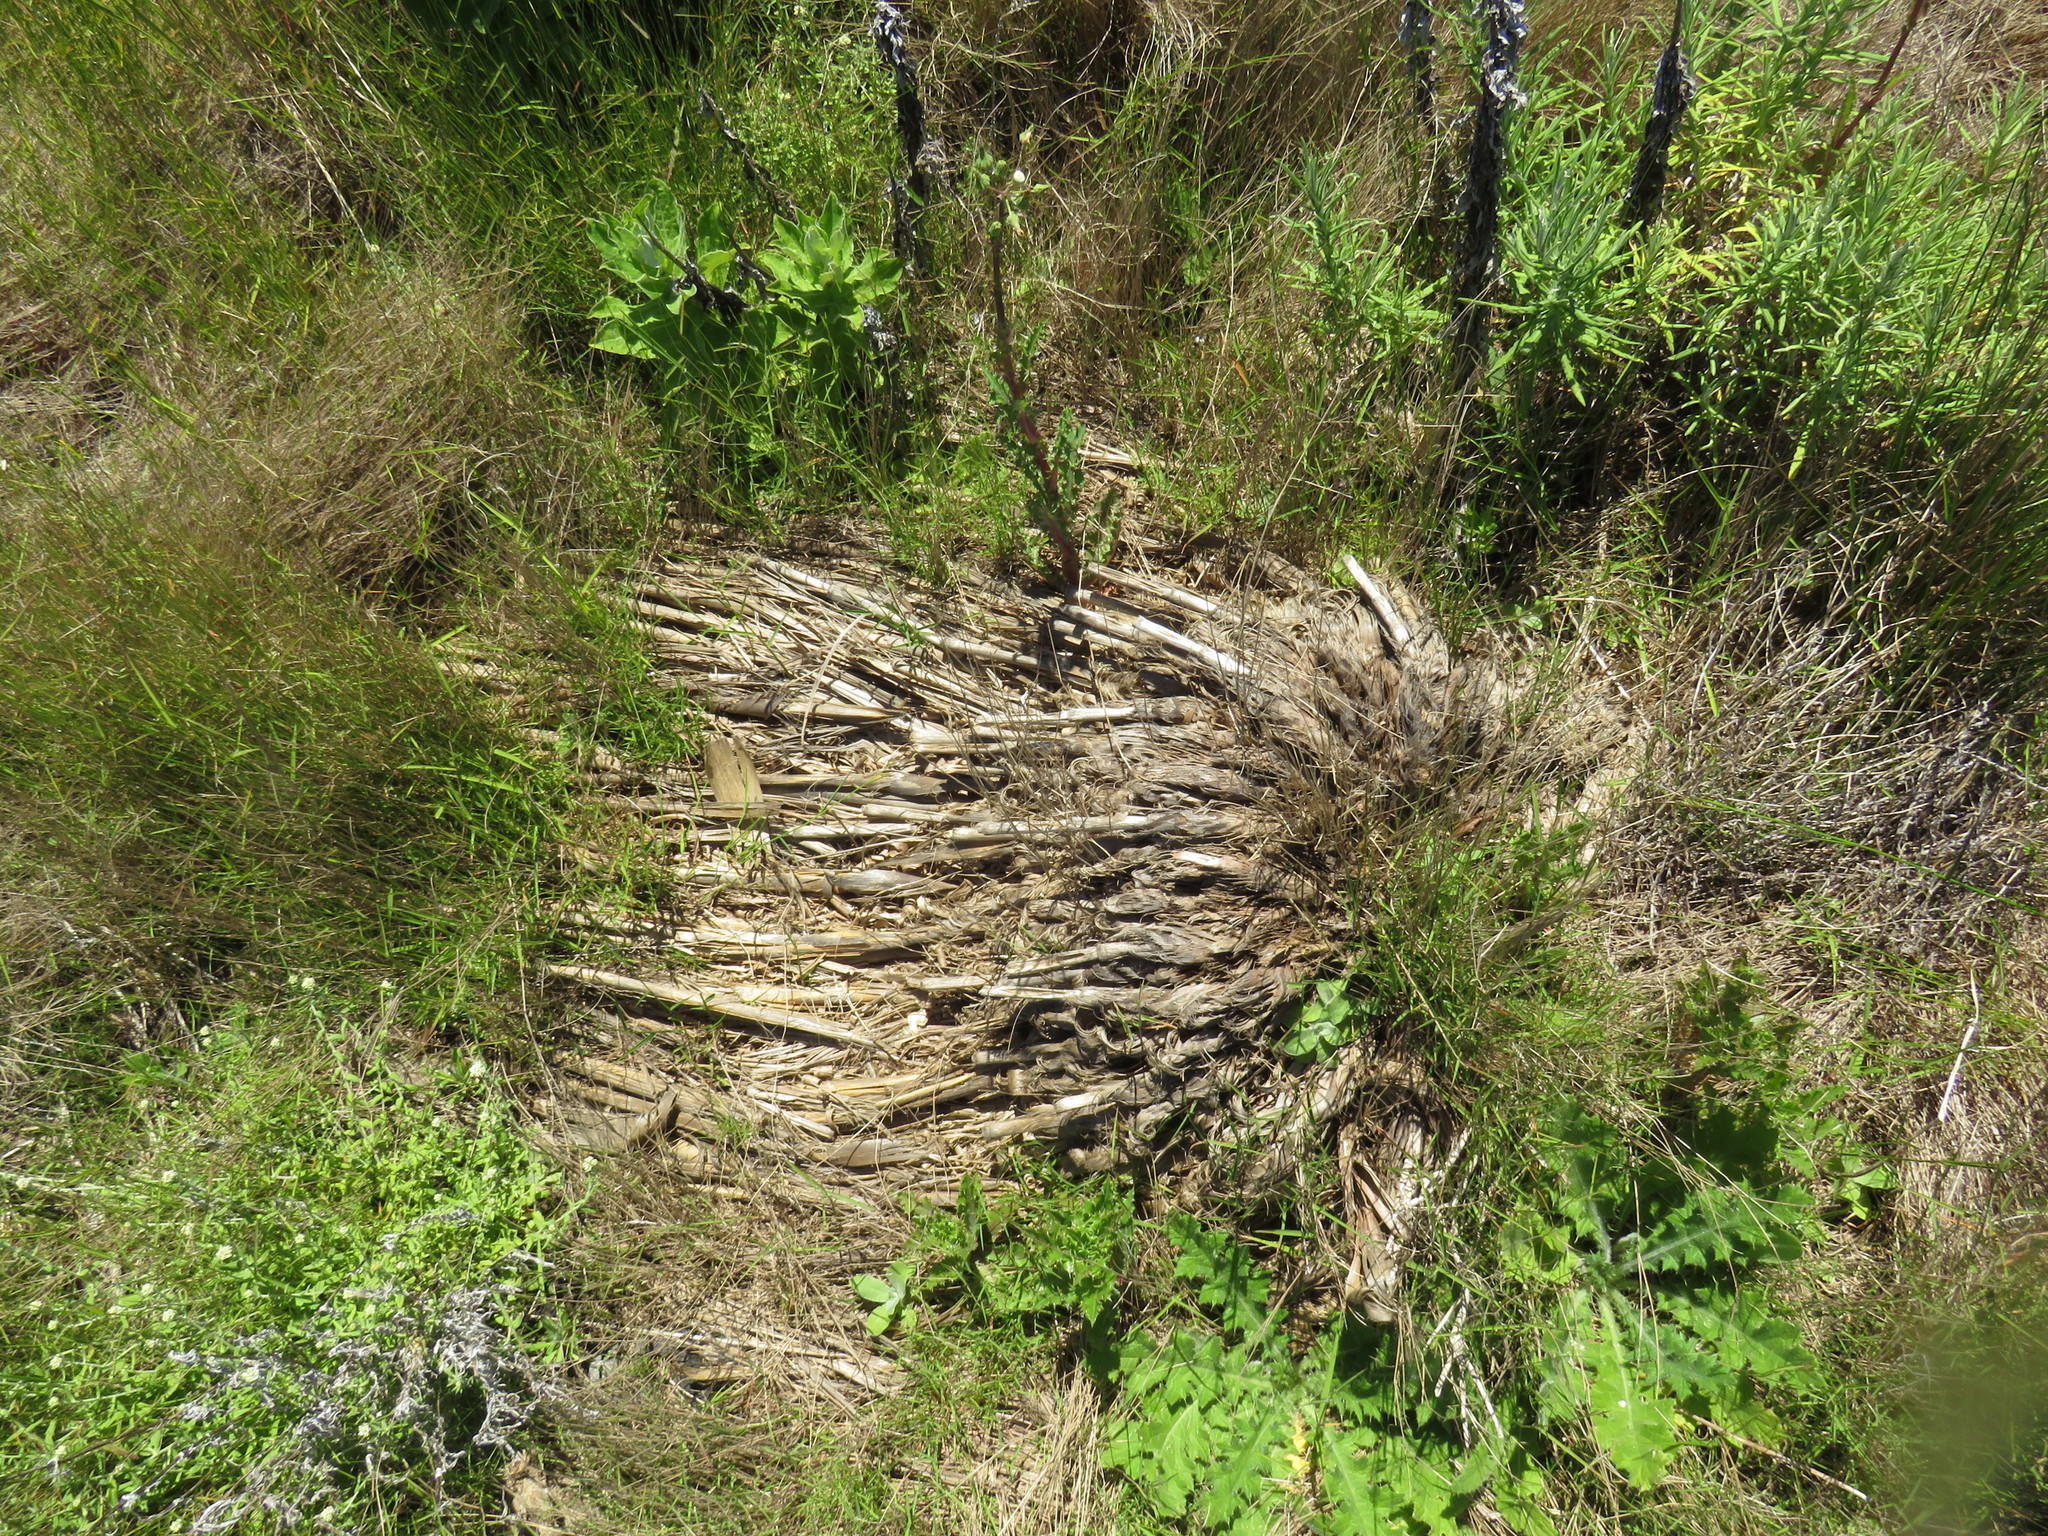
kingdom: Plantae
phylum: Tracheophyta
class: Liliopsida
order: Poales
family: Poaceae
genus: Cortaderia
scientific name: Cortaderia selloana
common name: Uruguayan pampas grass
